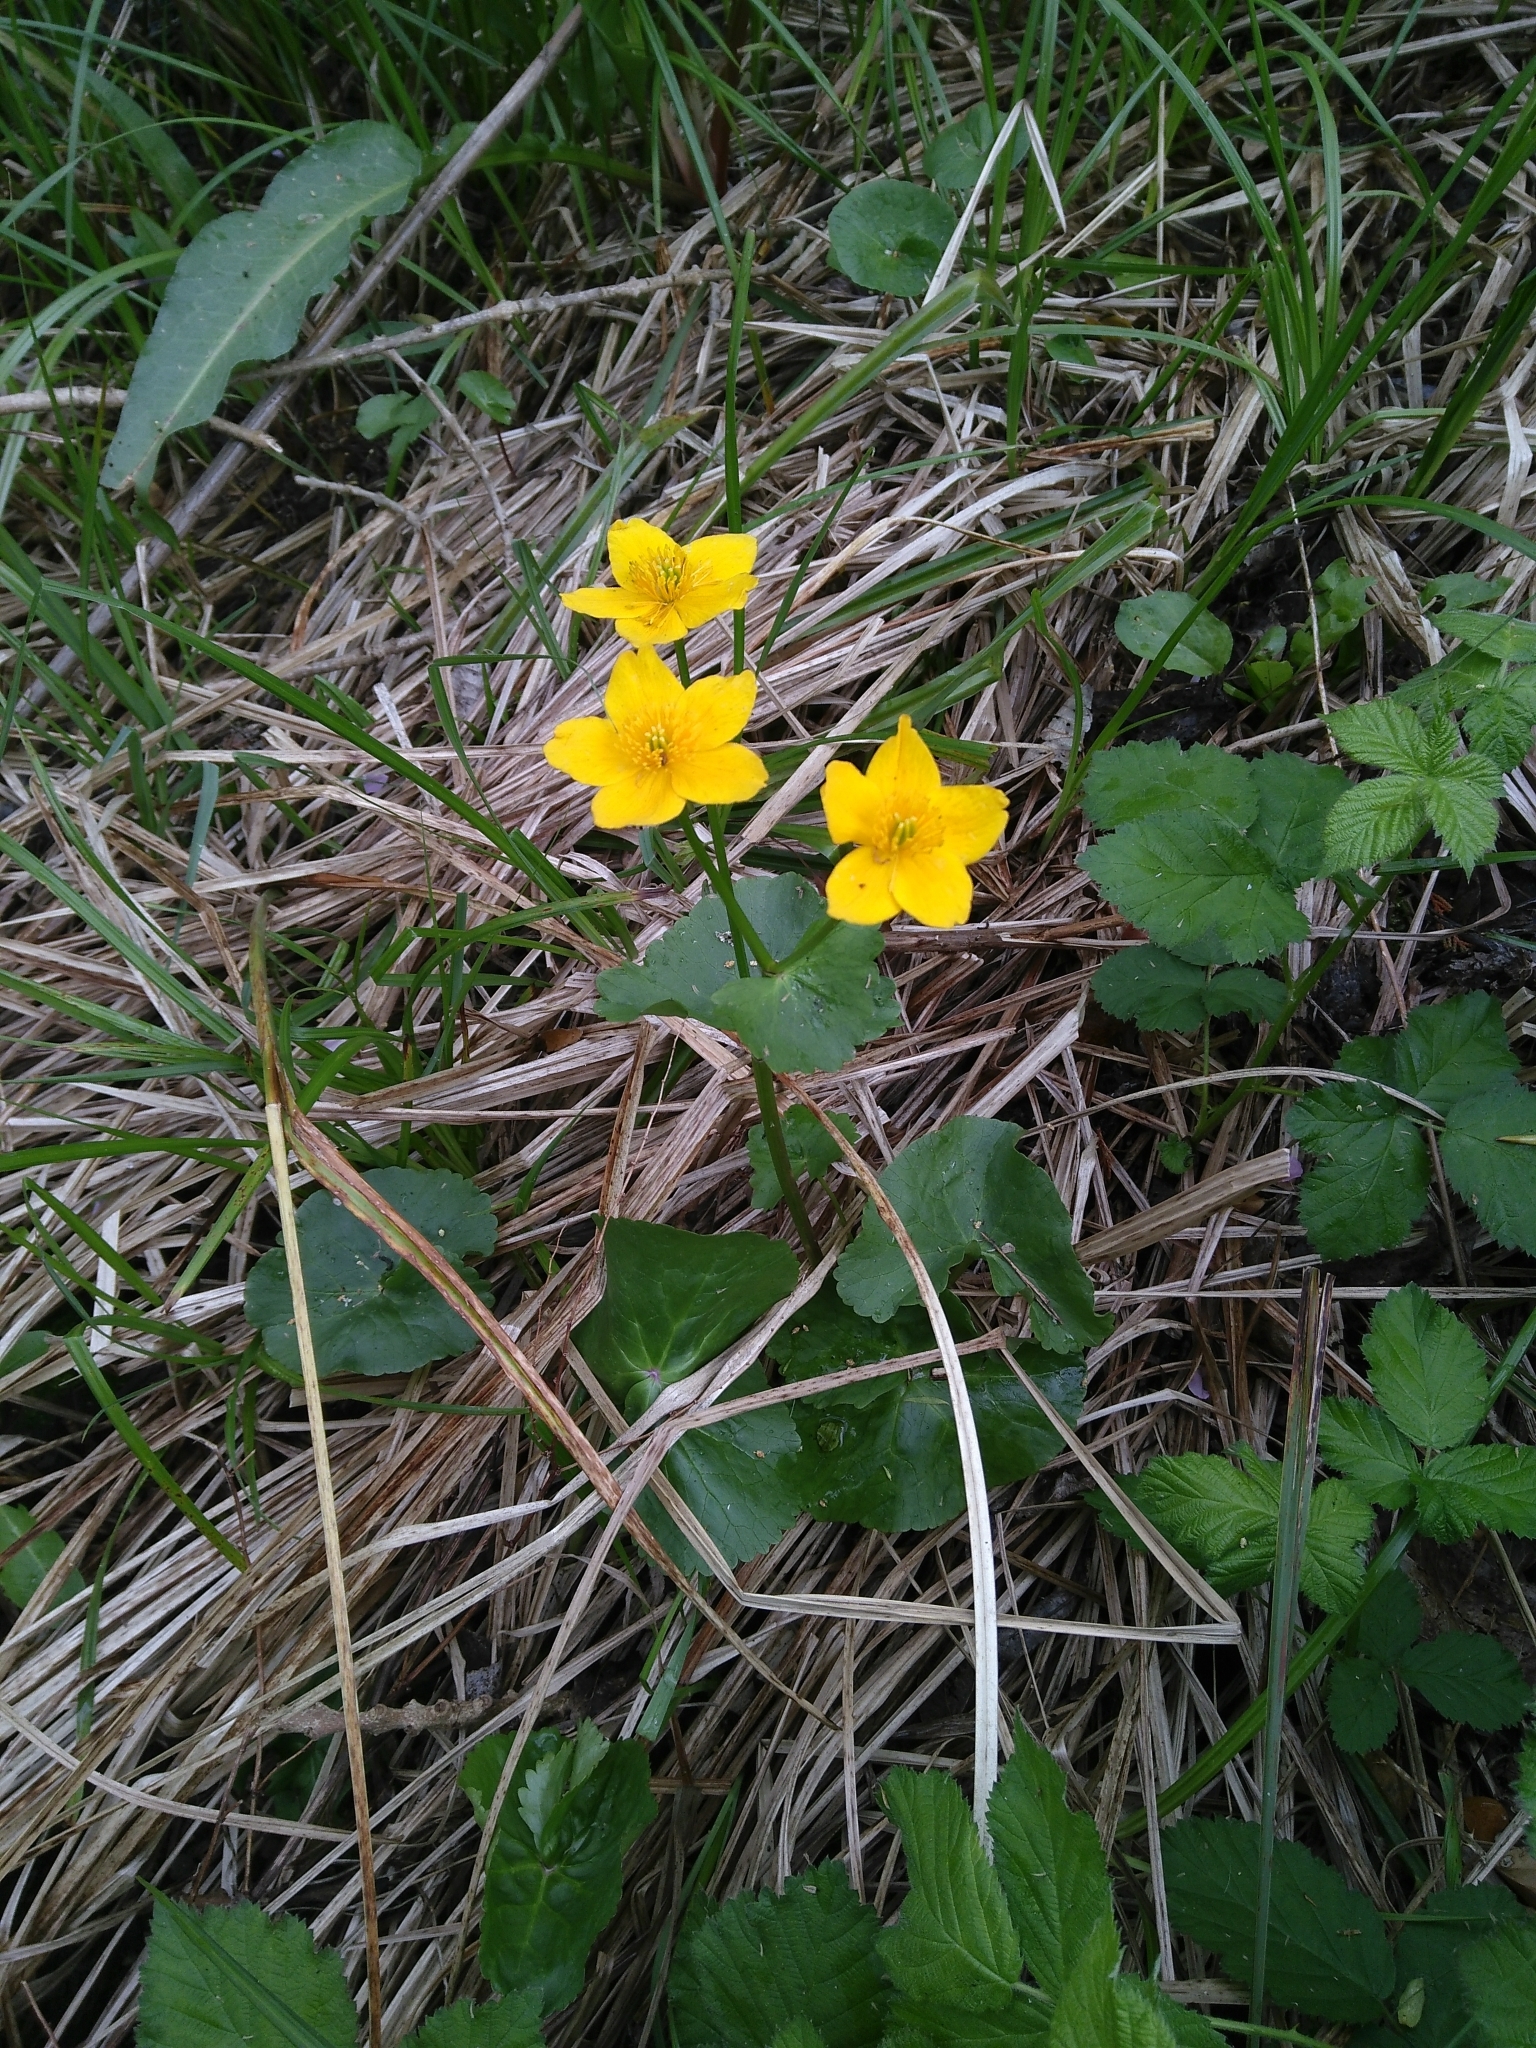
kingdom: Plantae
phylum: Tracheophyta
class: Magnoliopsida
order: Ranunculales
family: Ranunculaceae
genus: Caltha
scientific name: Caltha palustris
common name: Marsh marigold
